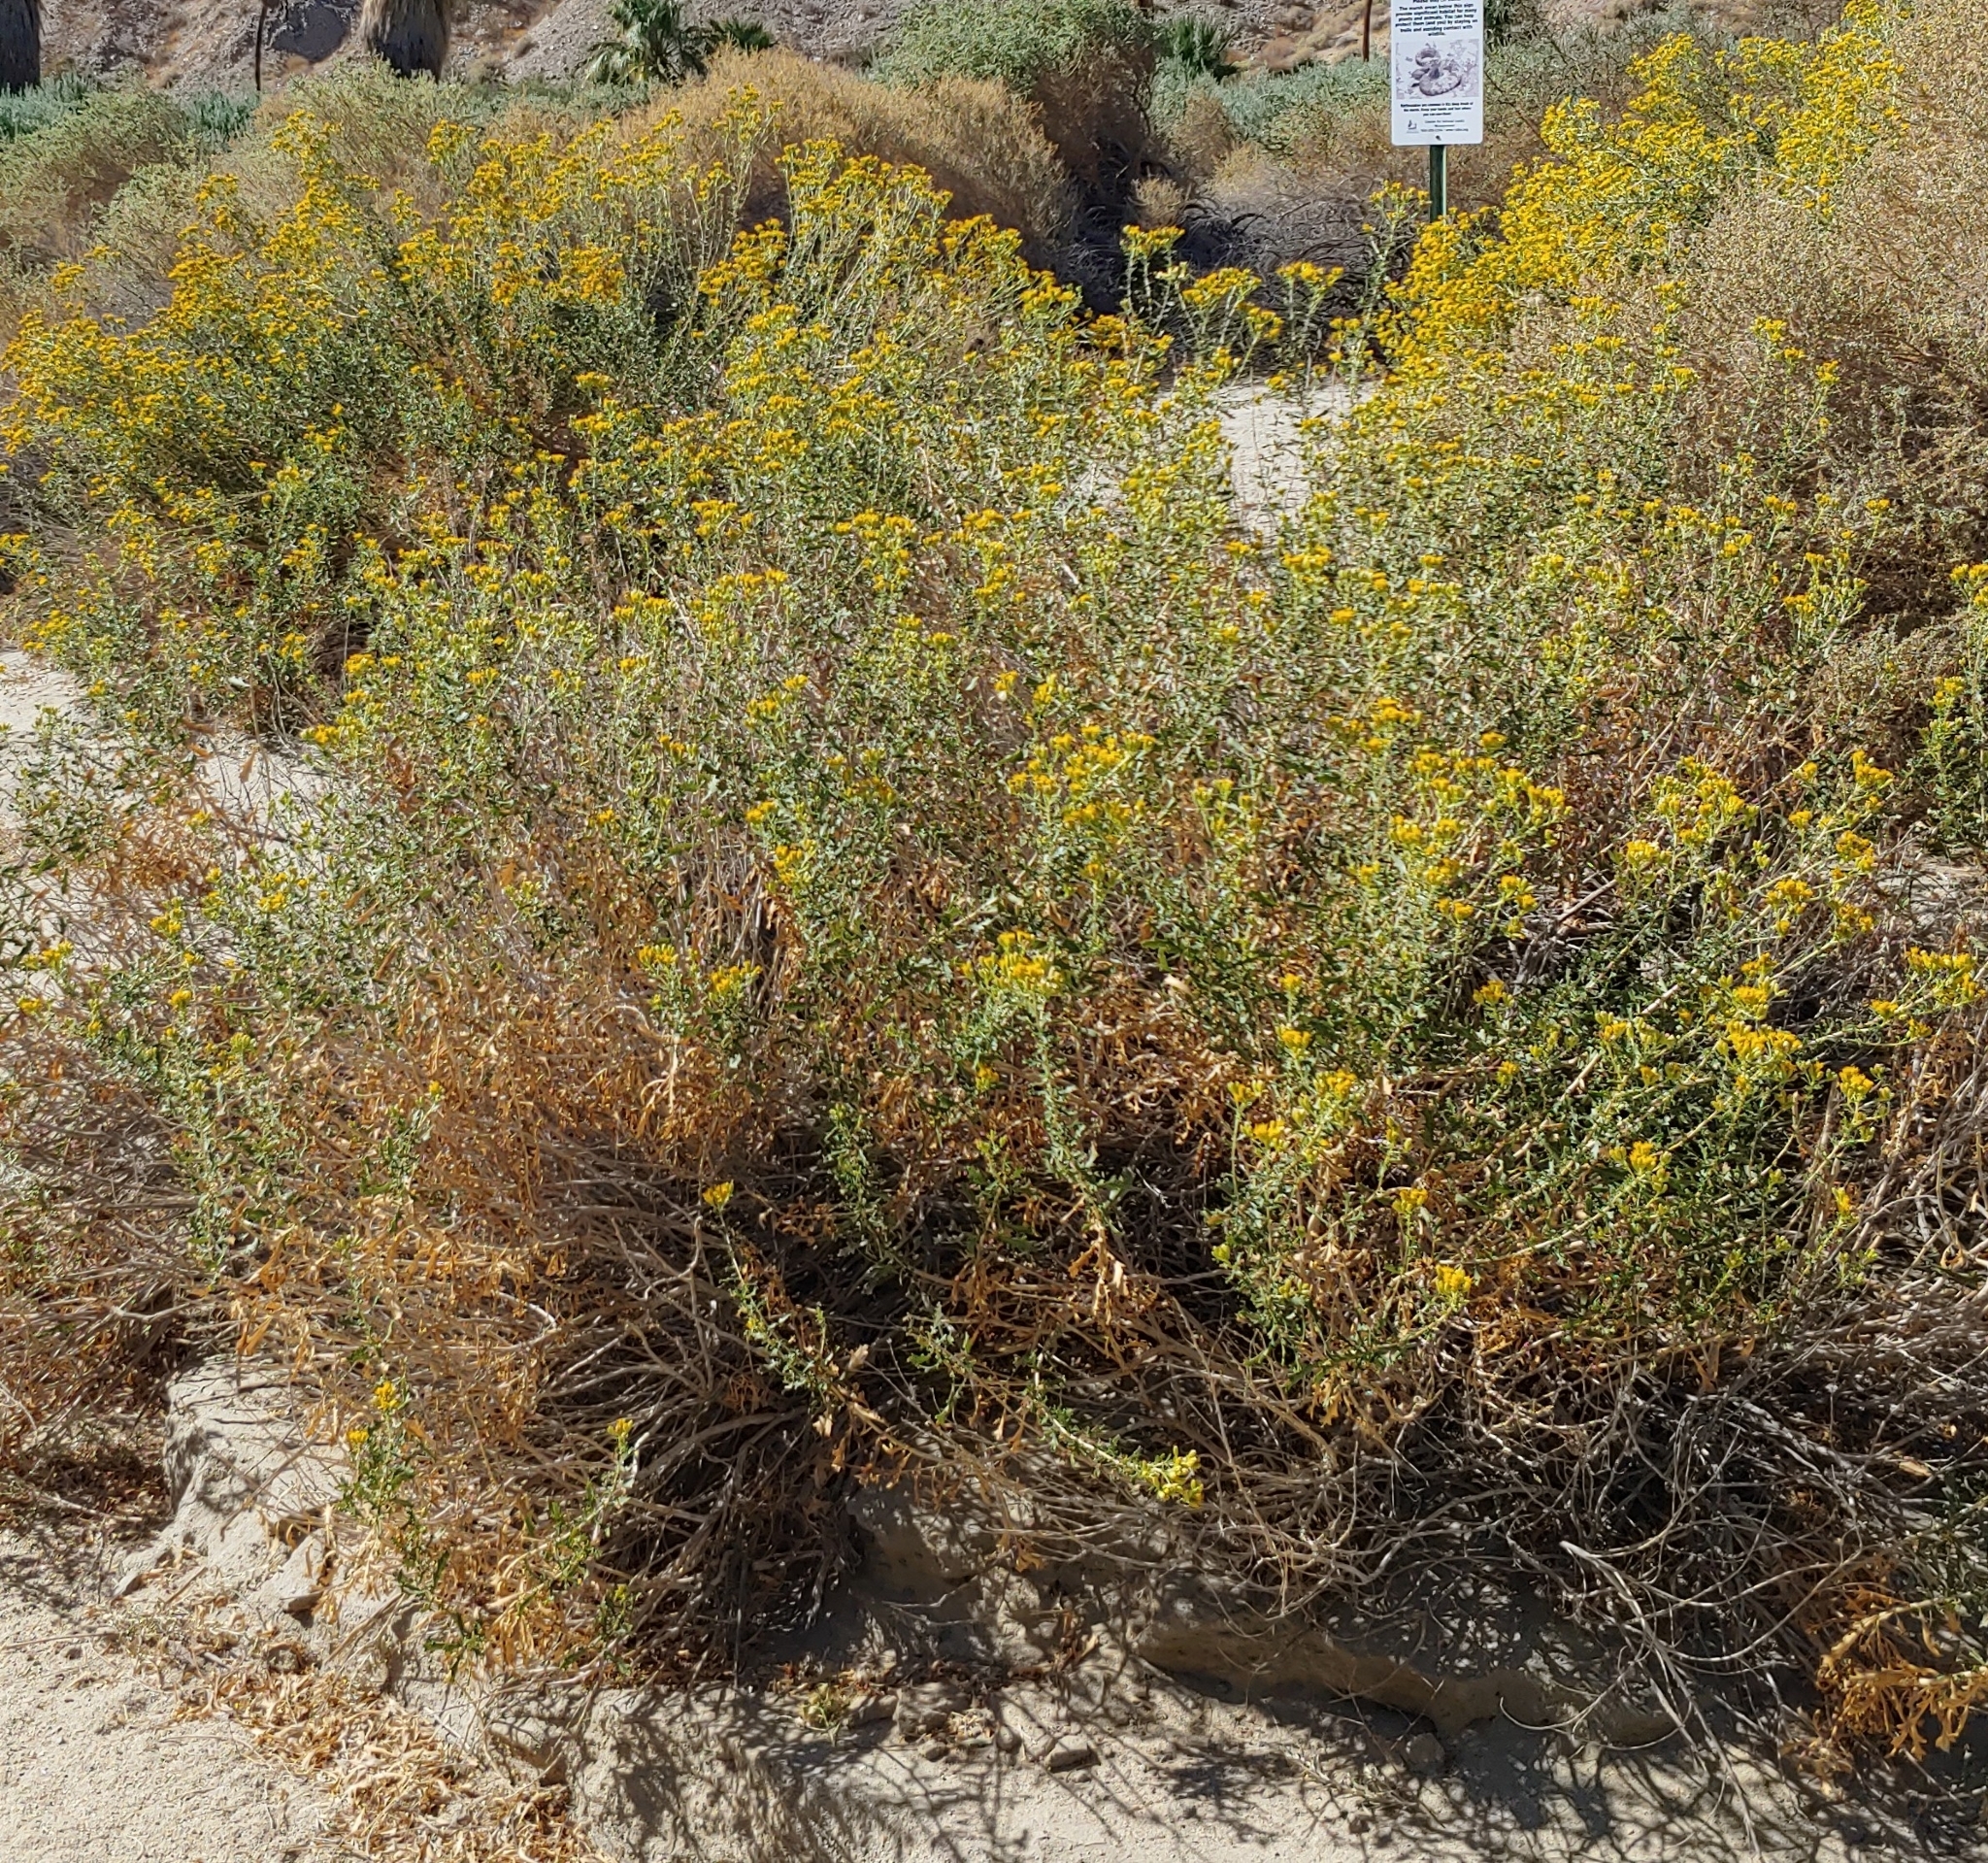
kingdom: Plantae
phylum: Tracheophyta
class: Magnoliopsida
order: Asterales
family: Asteraceae
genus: Isocoma
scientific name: Isocoma acradenia
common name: Alkali jimmyweed
